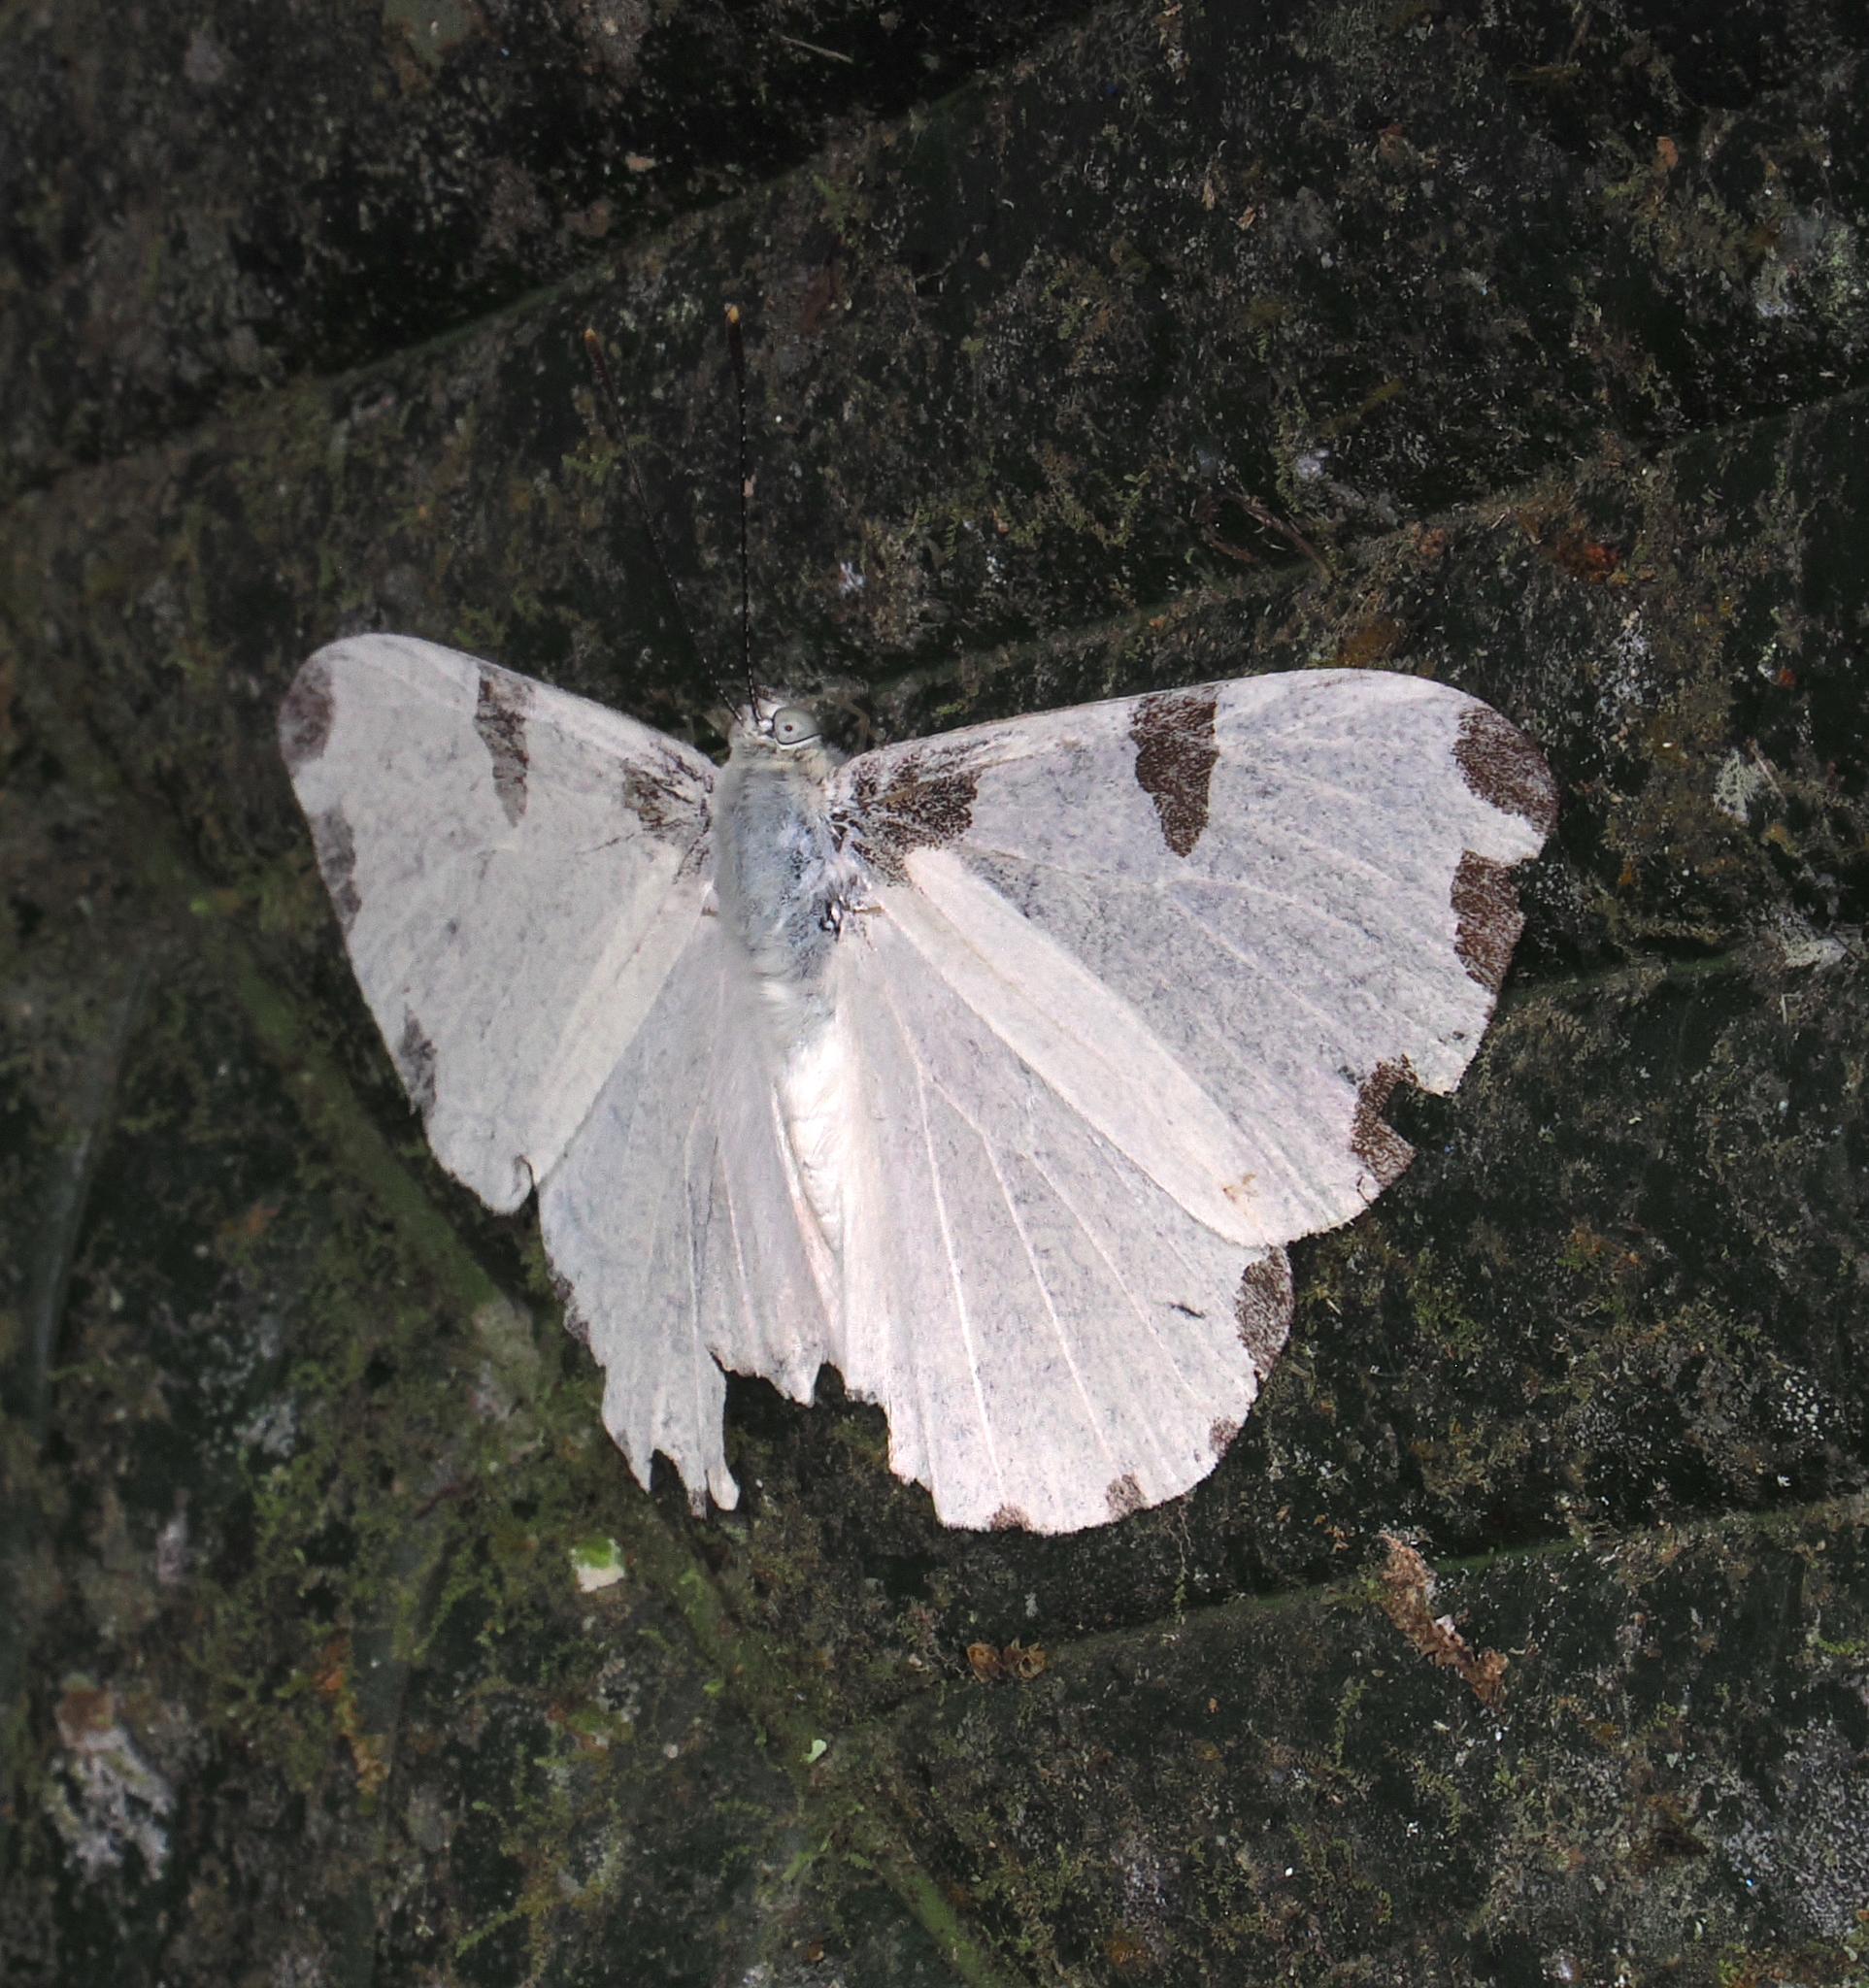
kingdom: Animalia
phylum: Arthropoda
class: Insecta
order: Lepidoptera
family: Riodinidae
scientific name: Riodinidae
